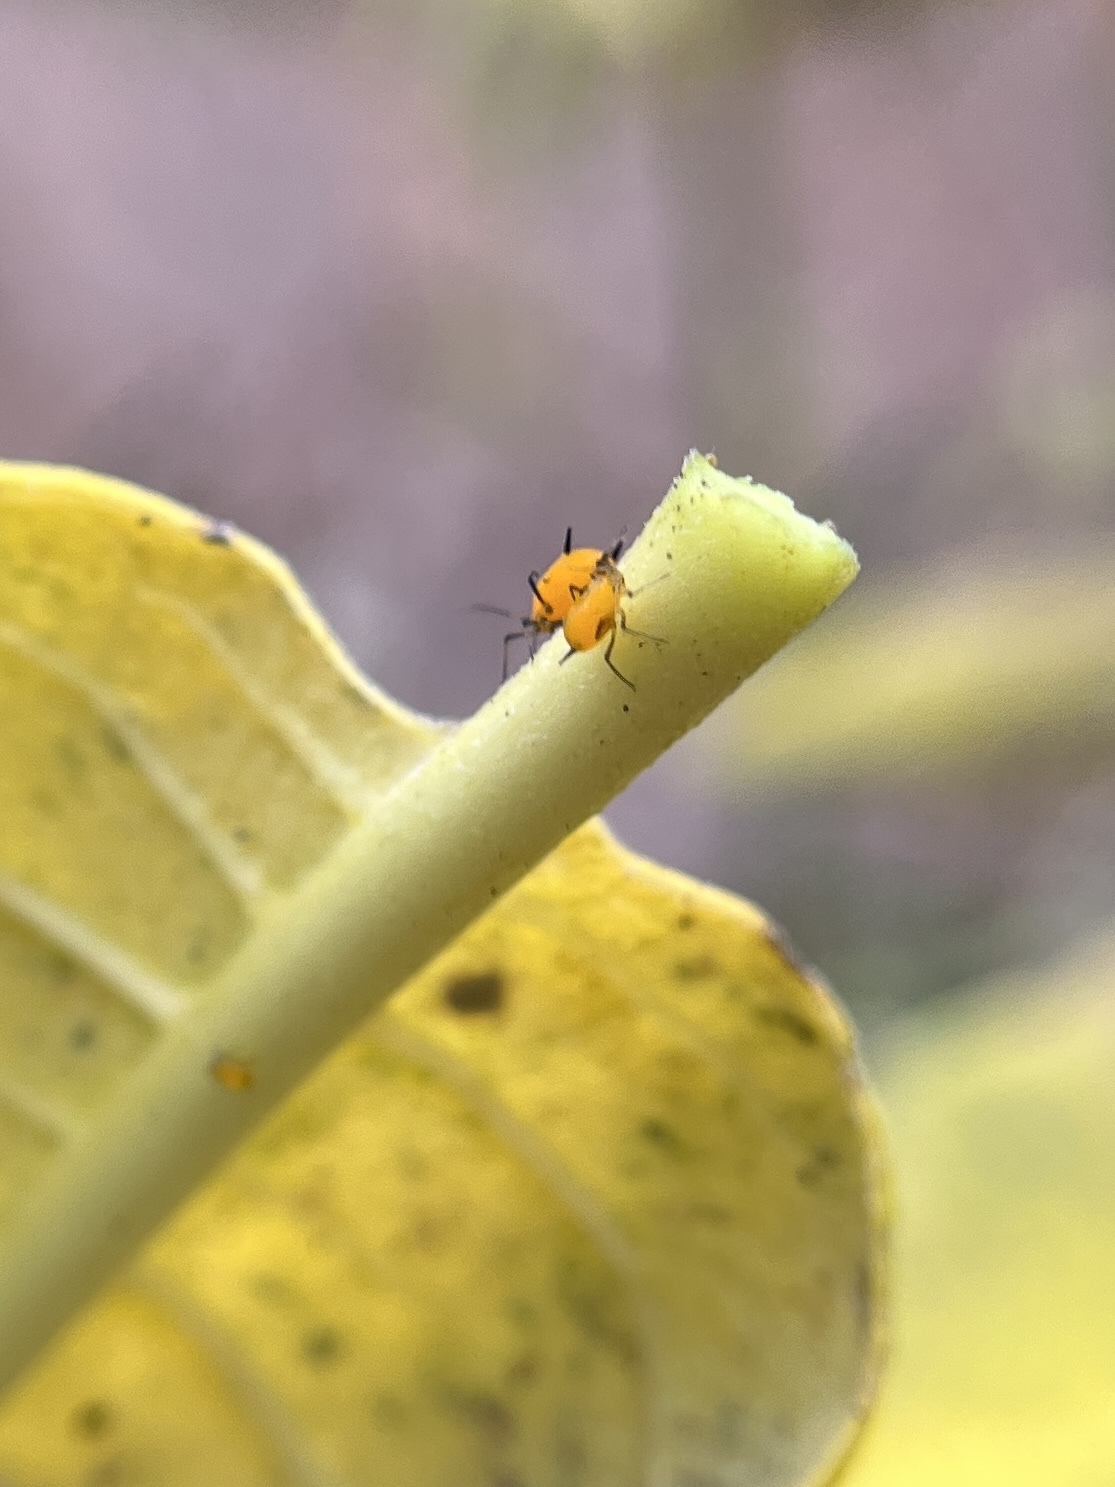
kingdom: Animalia
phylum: Arthropoda
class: Insecta
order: Hemiptera
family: Aphididae
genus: Aphis
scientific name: Aphis nerii
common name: Oleander aphid
